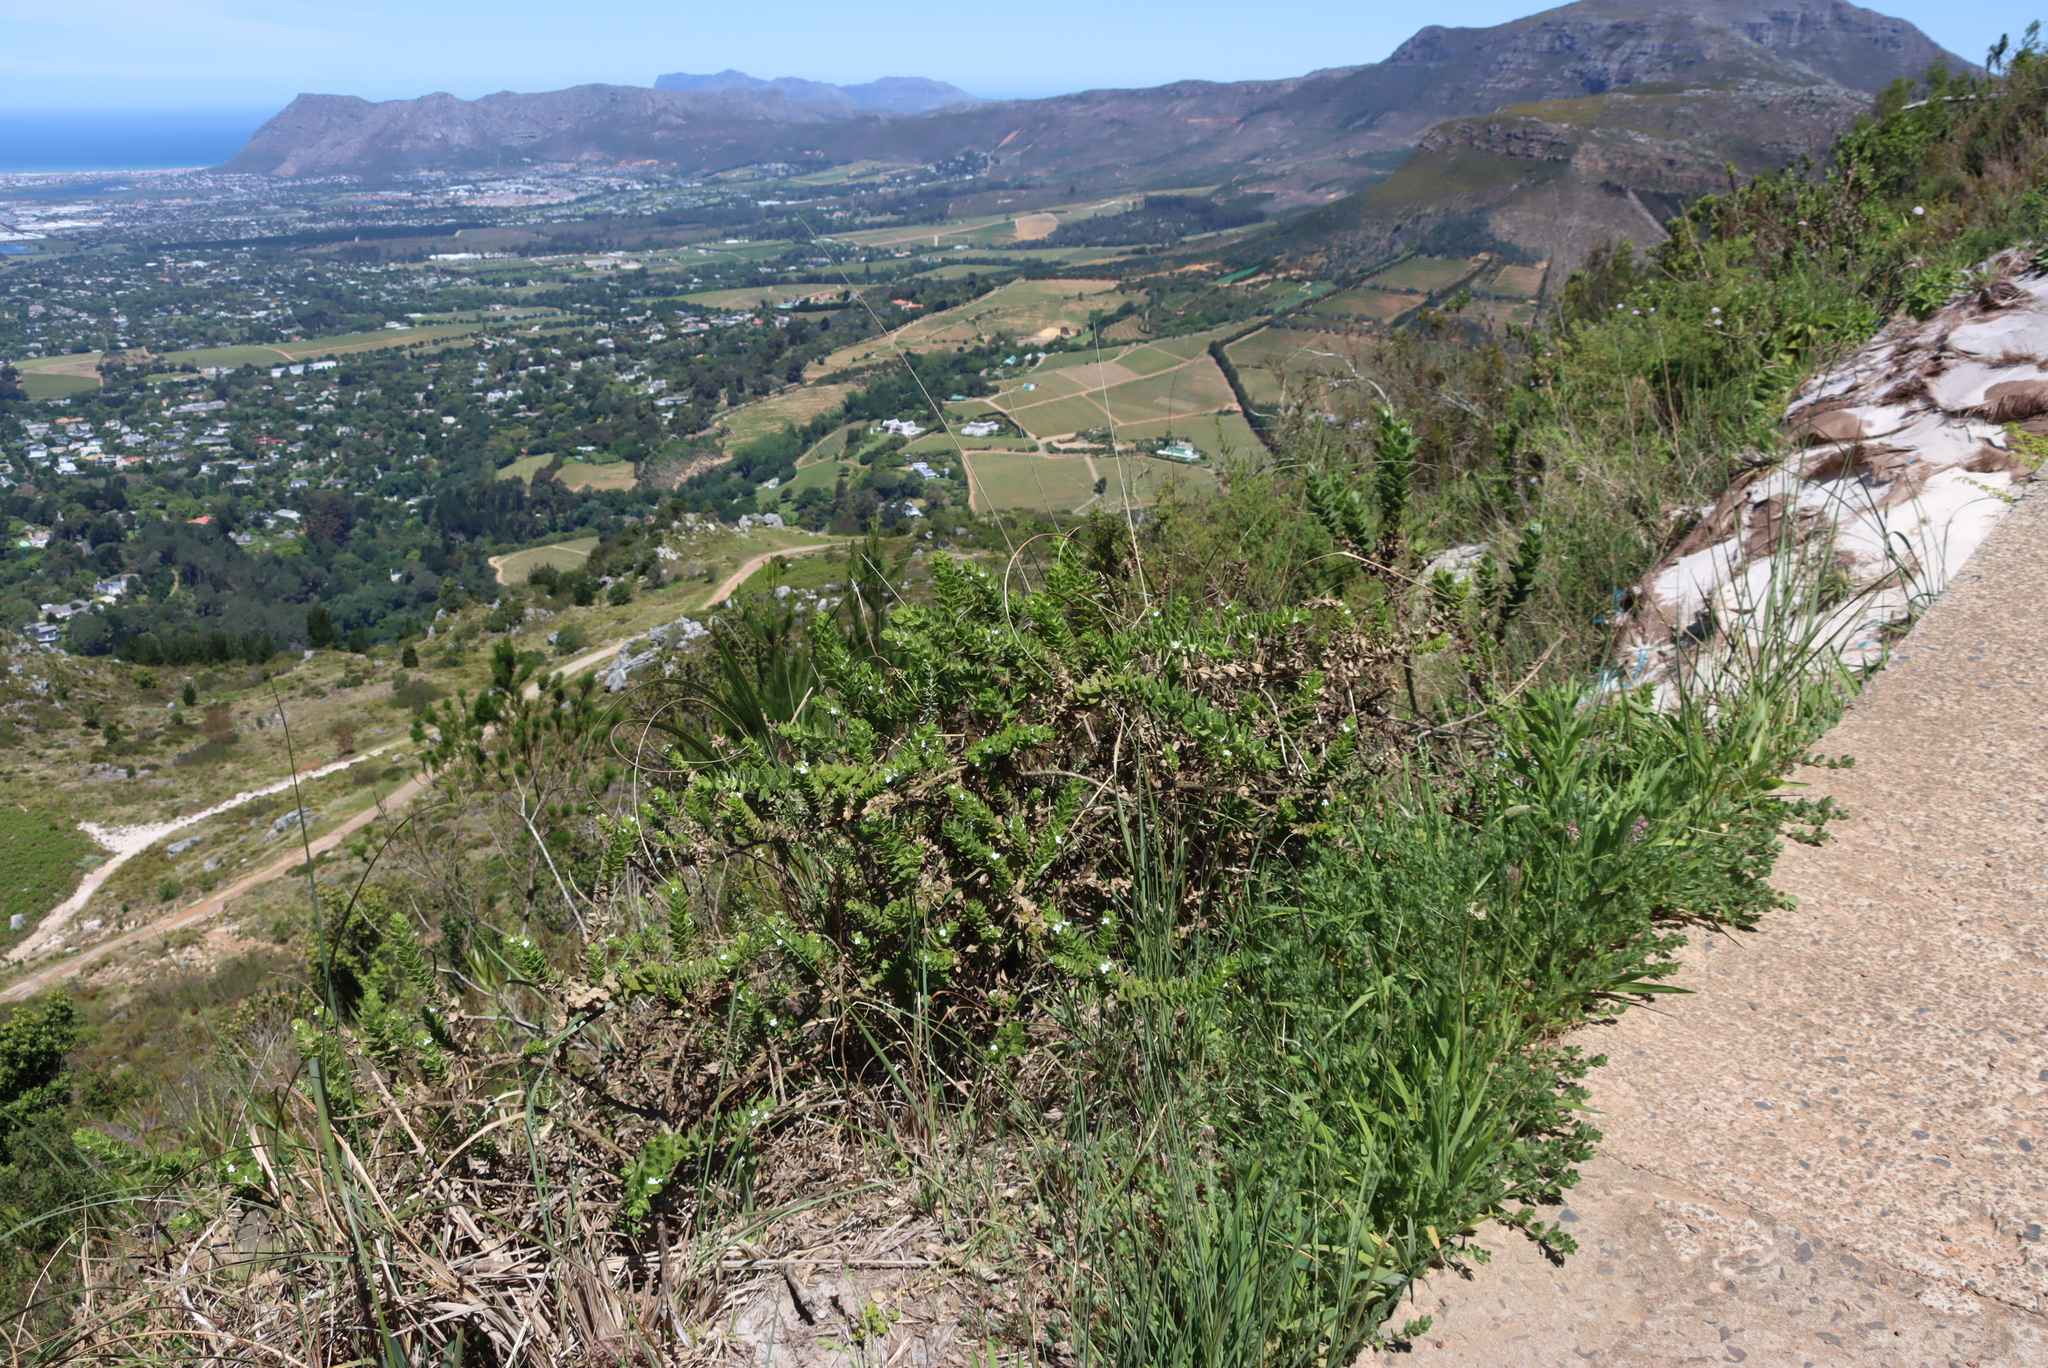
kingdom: Plantae
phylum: Tracheophyta
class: Magnoliopsida
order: Lamiales
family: Scrophulariaceae
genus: Oftia
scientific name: Oftia africana
